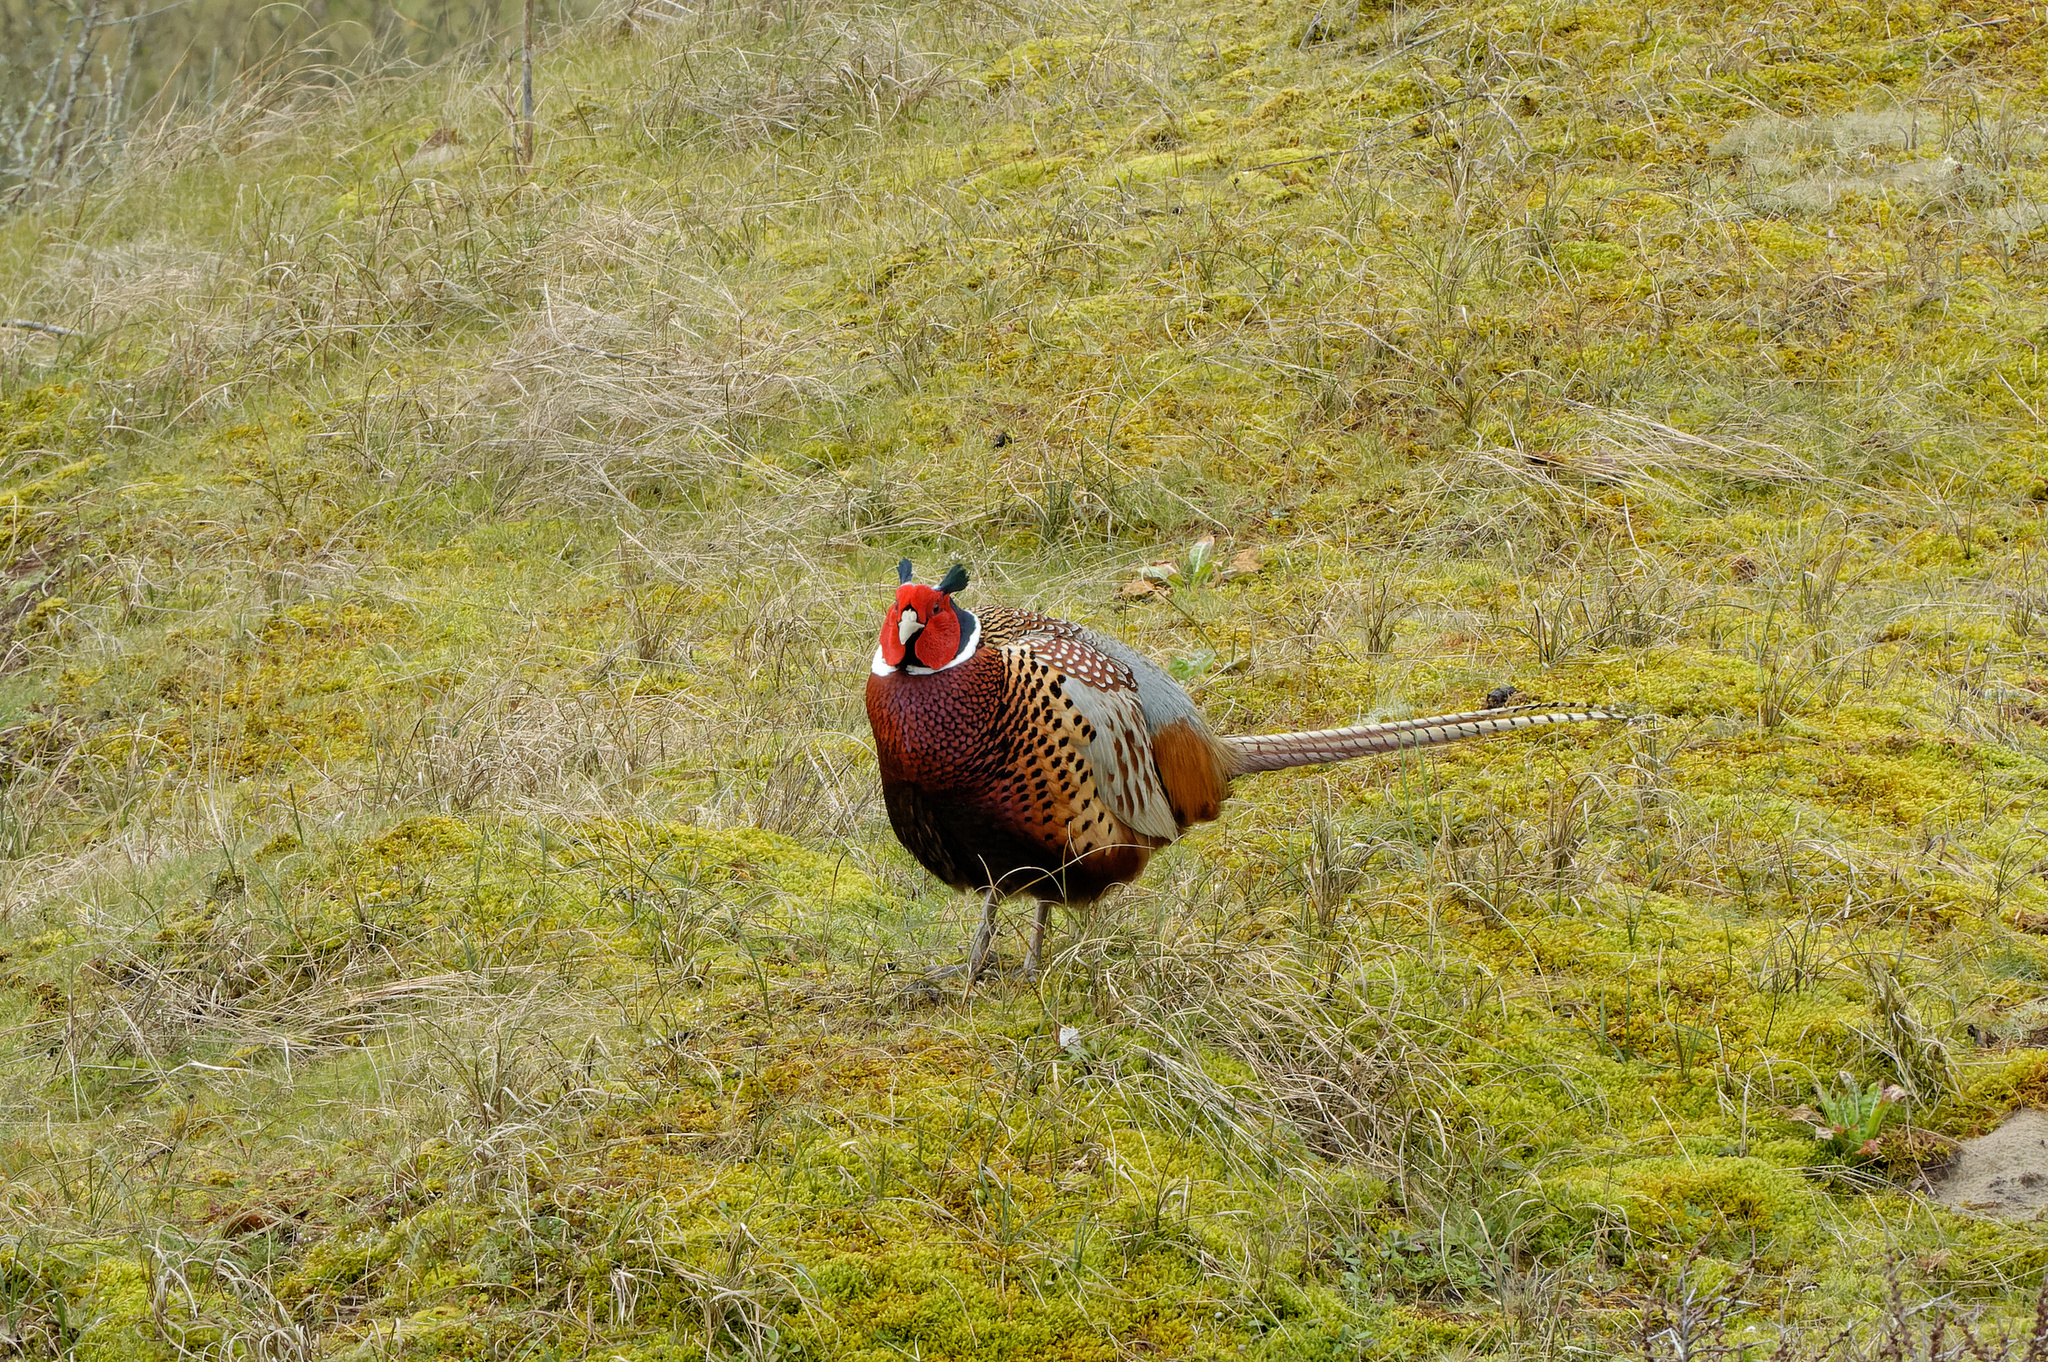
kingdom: Animalia
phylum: Chordata
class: Aves
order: Galliformes
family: Phasianidae
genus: Phasianus
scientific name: Phasianus colchicus
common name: Common pheasant
